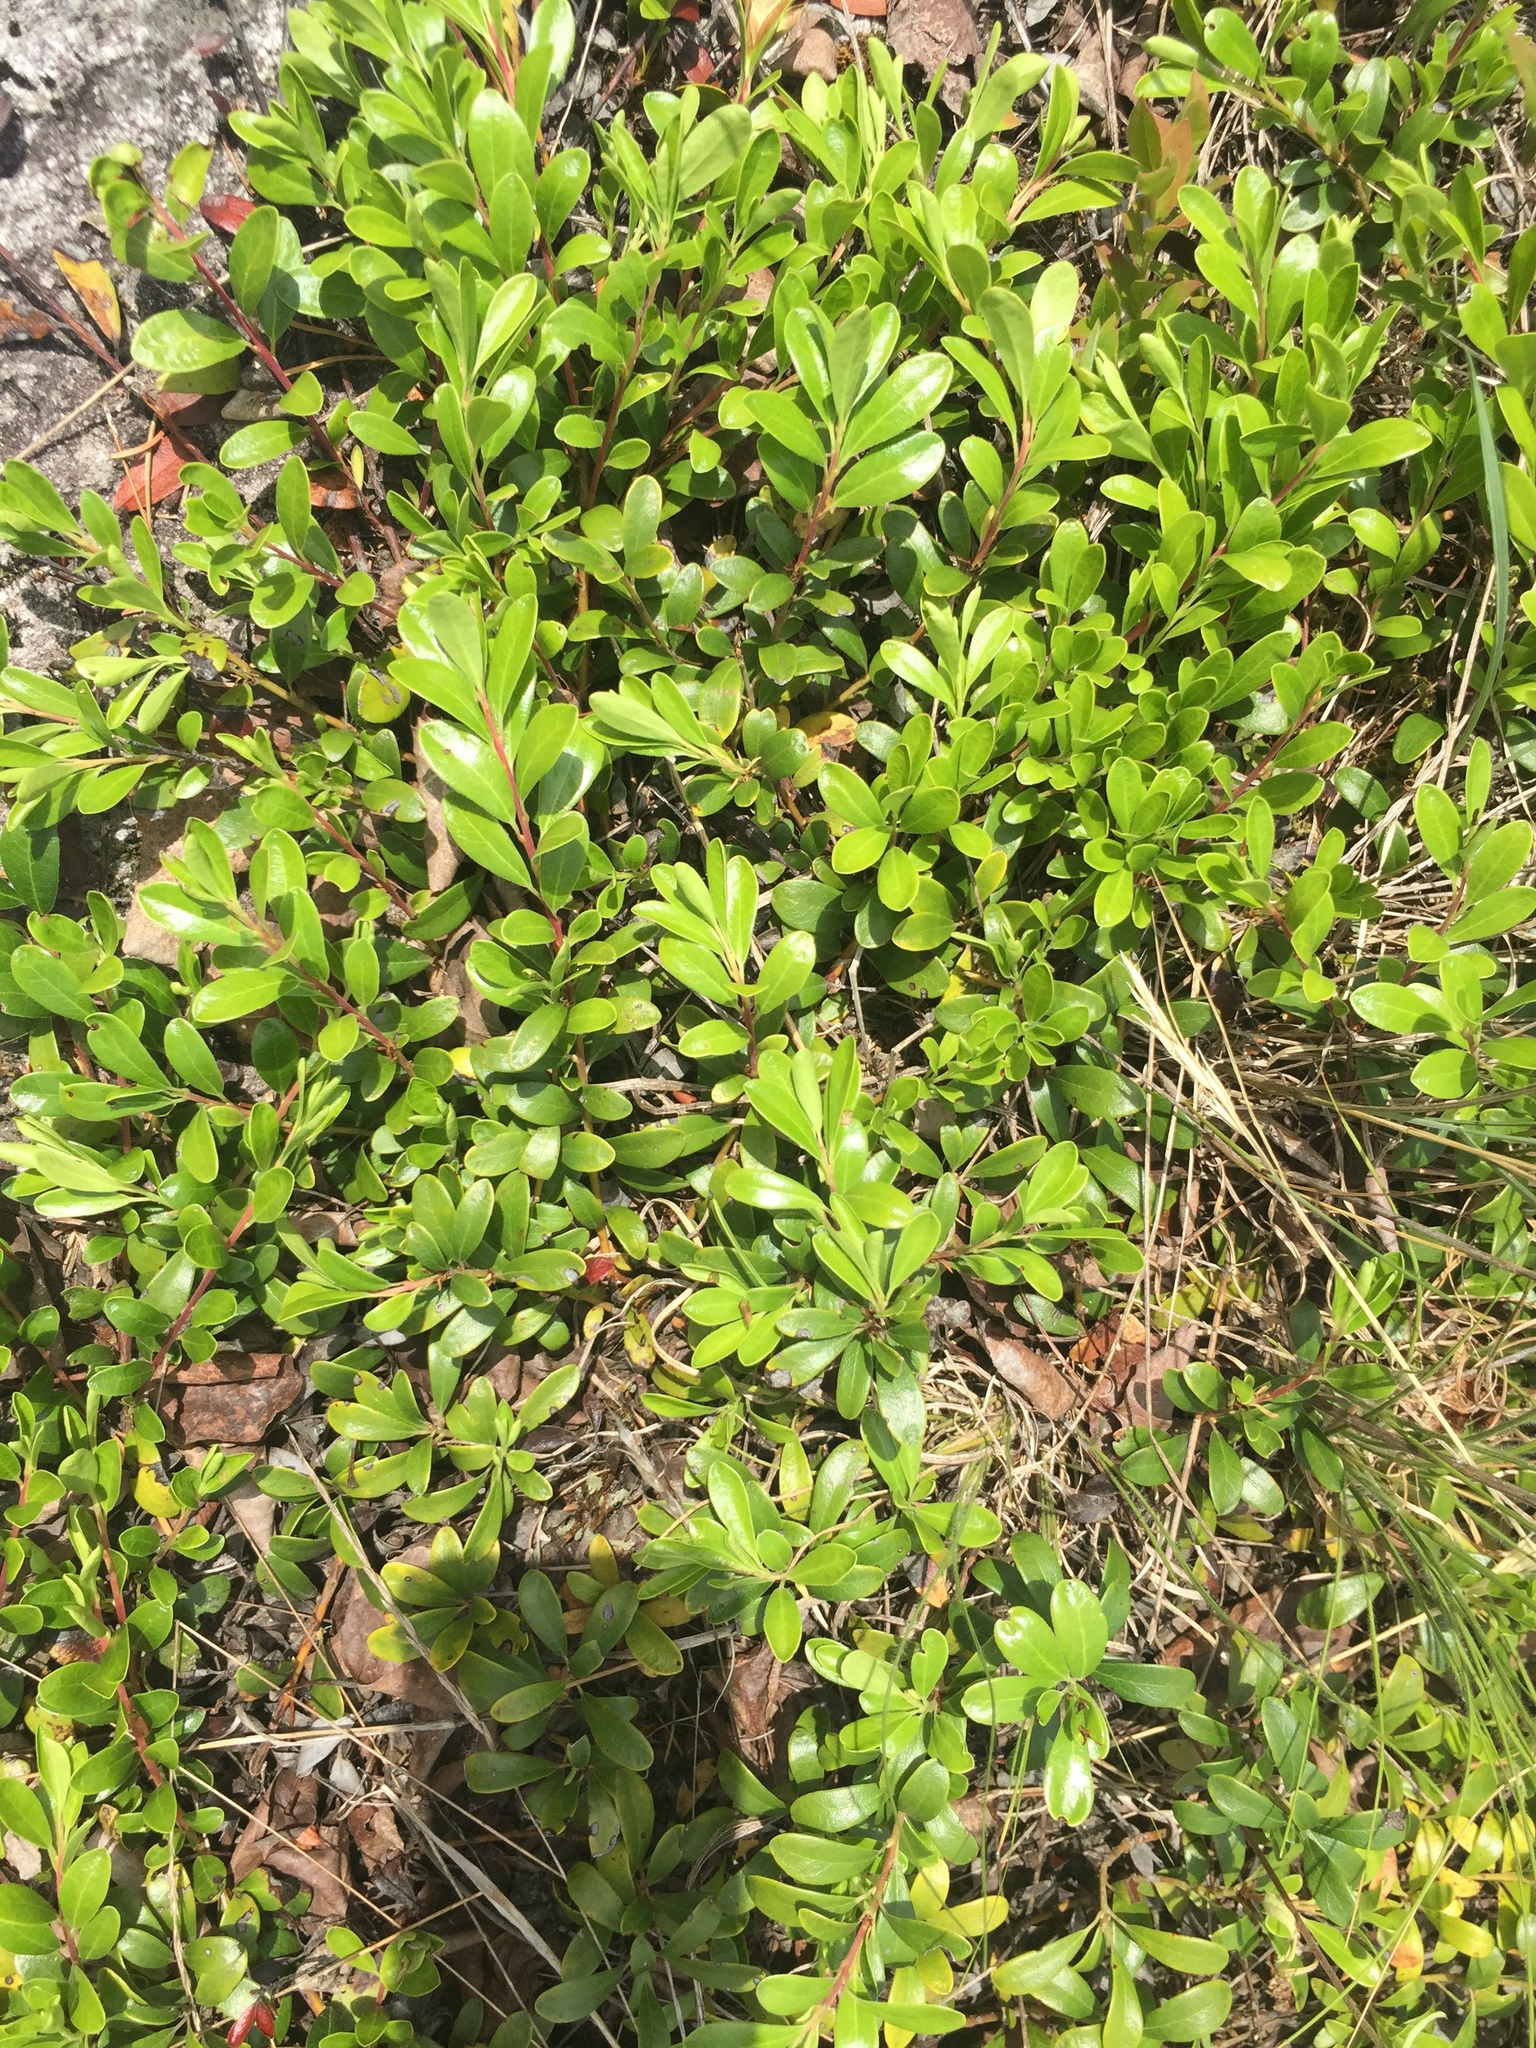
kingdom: Plantae
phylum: Tracheophyta
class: Magnoliopsida
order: Ericales
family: Ericaceae
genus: Arctostaphylos
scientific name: Arctostaphylos uva-ursi
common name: Bearberry
